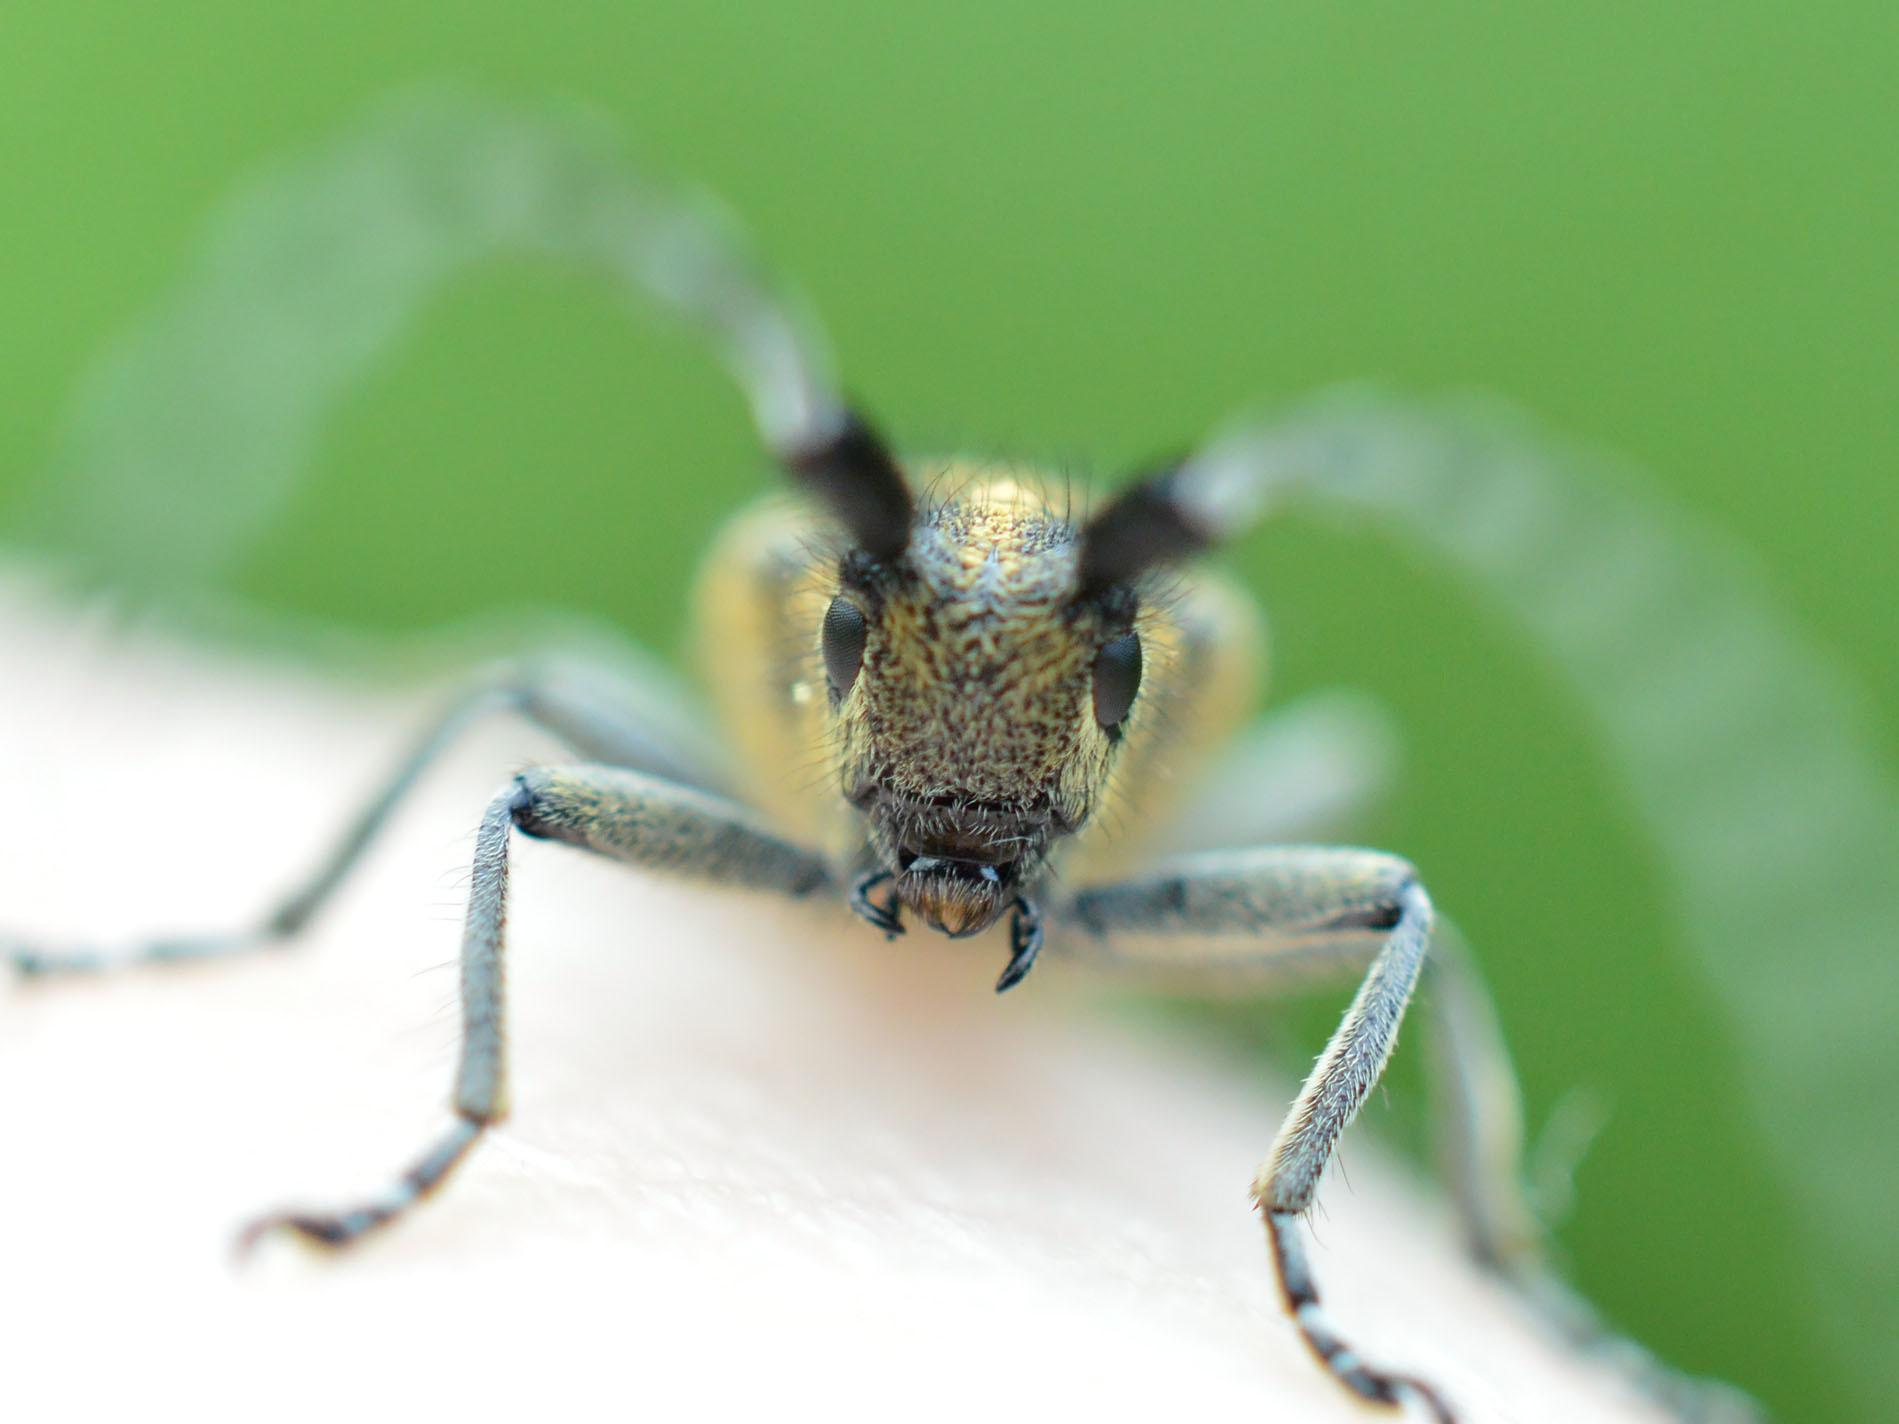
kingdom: Animalia
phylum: Arthropoda
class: Insecta
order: Coleoptera
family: Cerambycidae
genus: Agapanthia
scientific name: Agapanthia villosoviridescens
